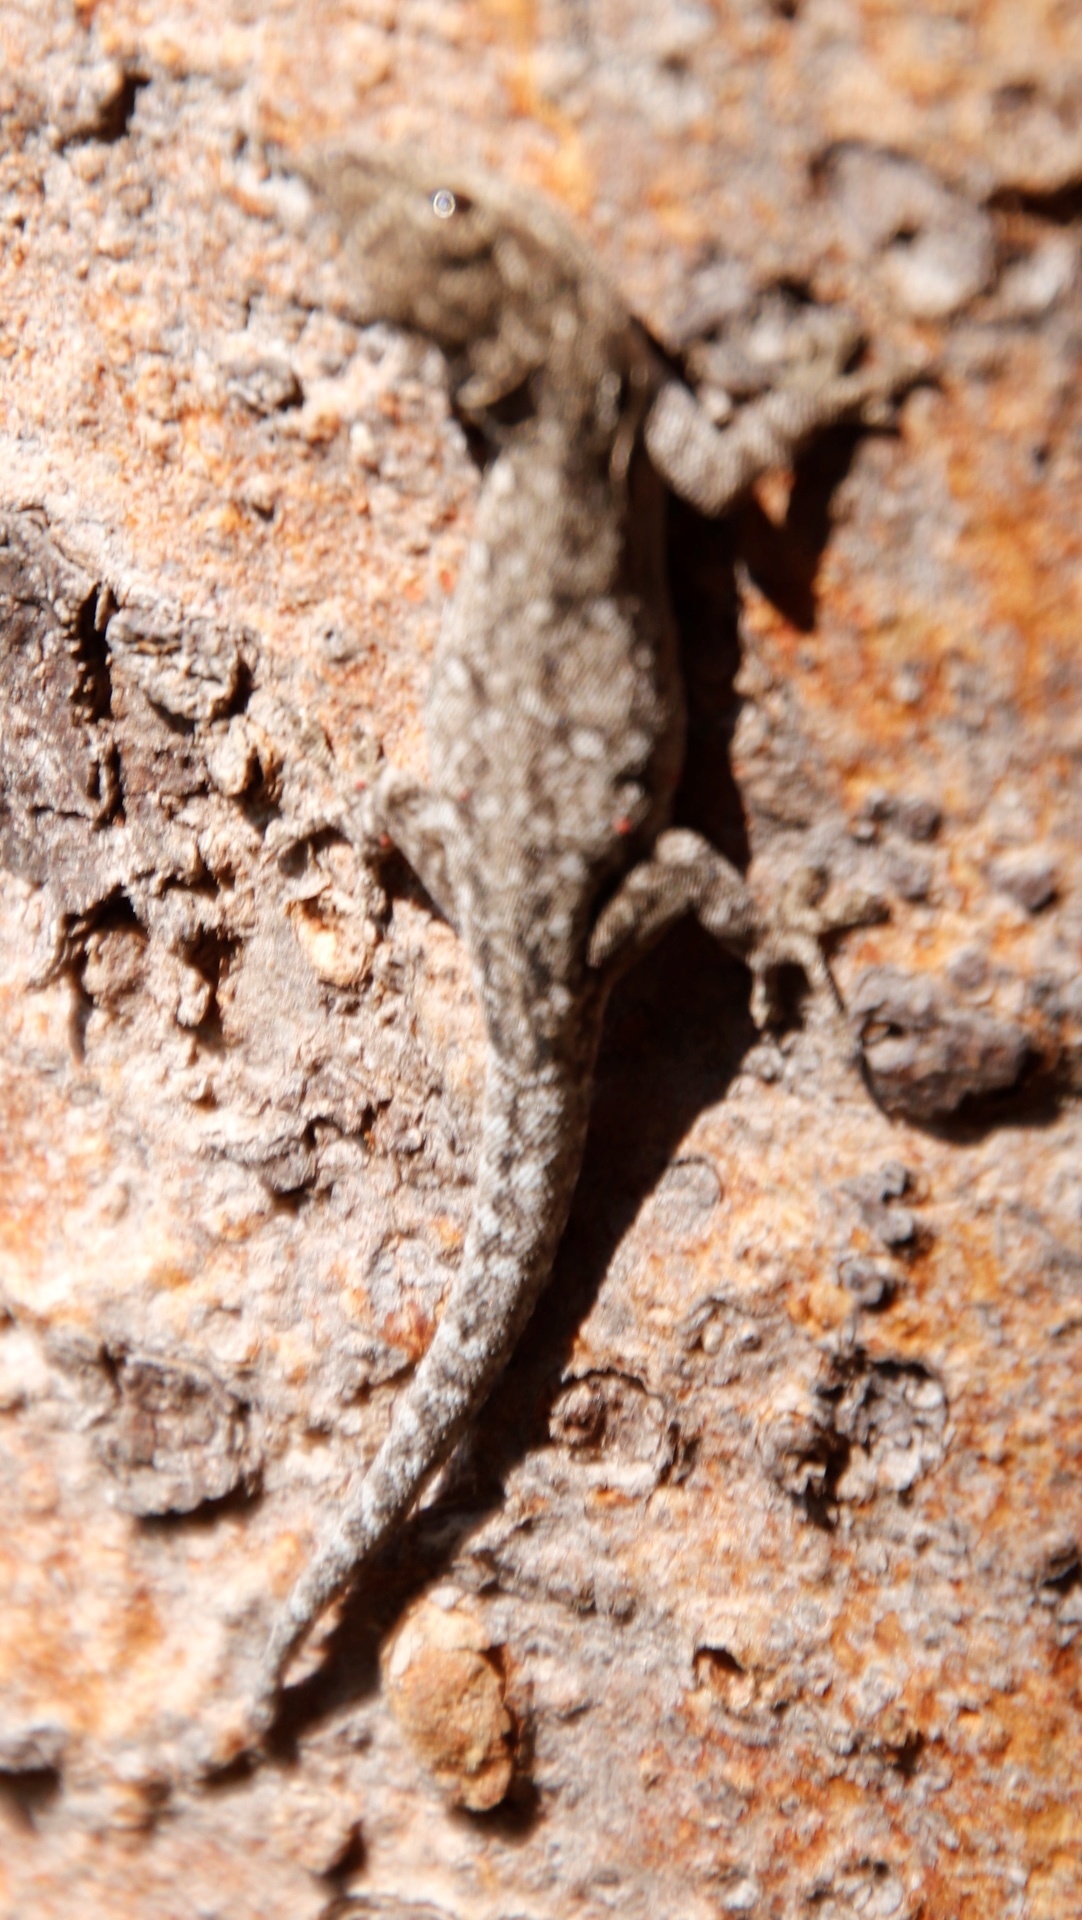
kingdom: Animalia
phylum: Chordata
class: Squamata
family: Gekkonidae
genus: Lygodactylus
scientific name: Lygodactylus chobiensis
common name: Okavango dwarf gecko
